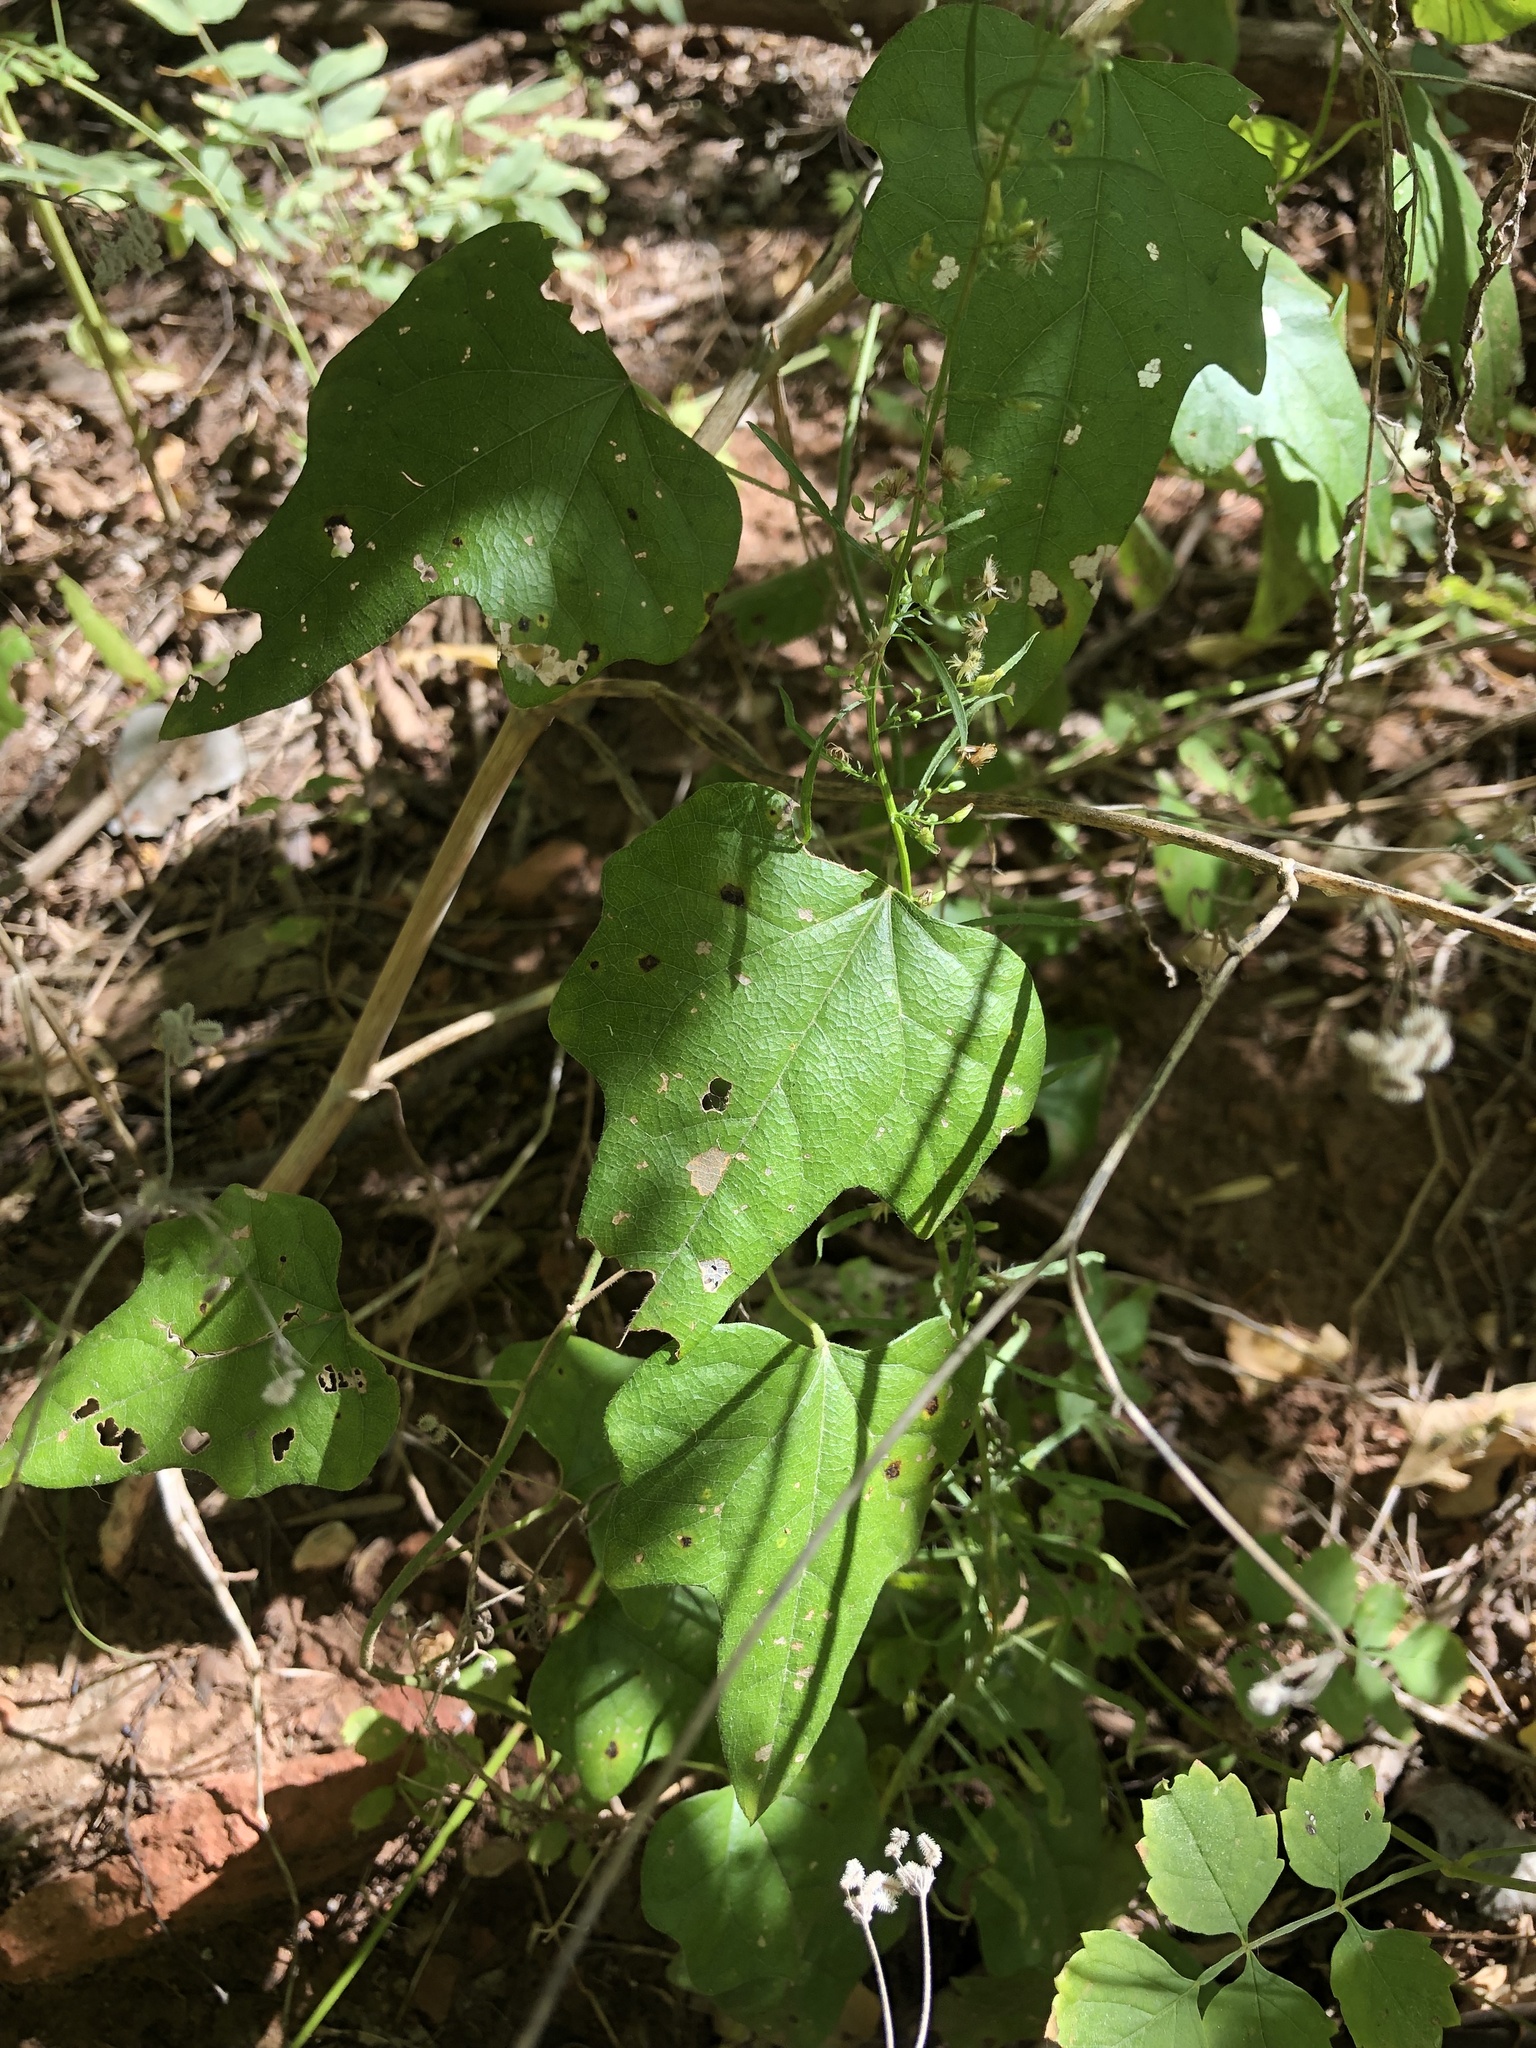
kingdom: Plantae
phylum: Tracheophyta
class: Magnoliopsida
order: Ranunculales
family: Menispermaceae
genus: Cocculus
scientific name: Cocculus carolinus
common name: Carolina moonseed
